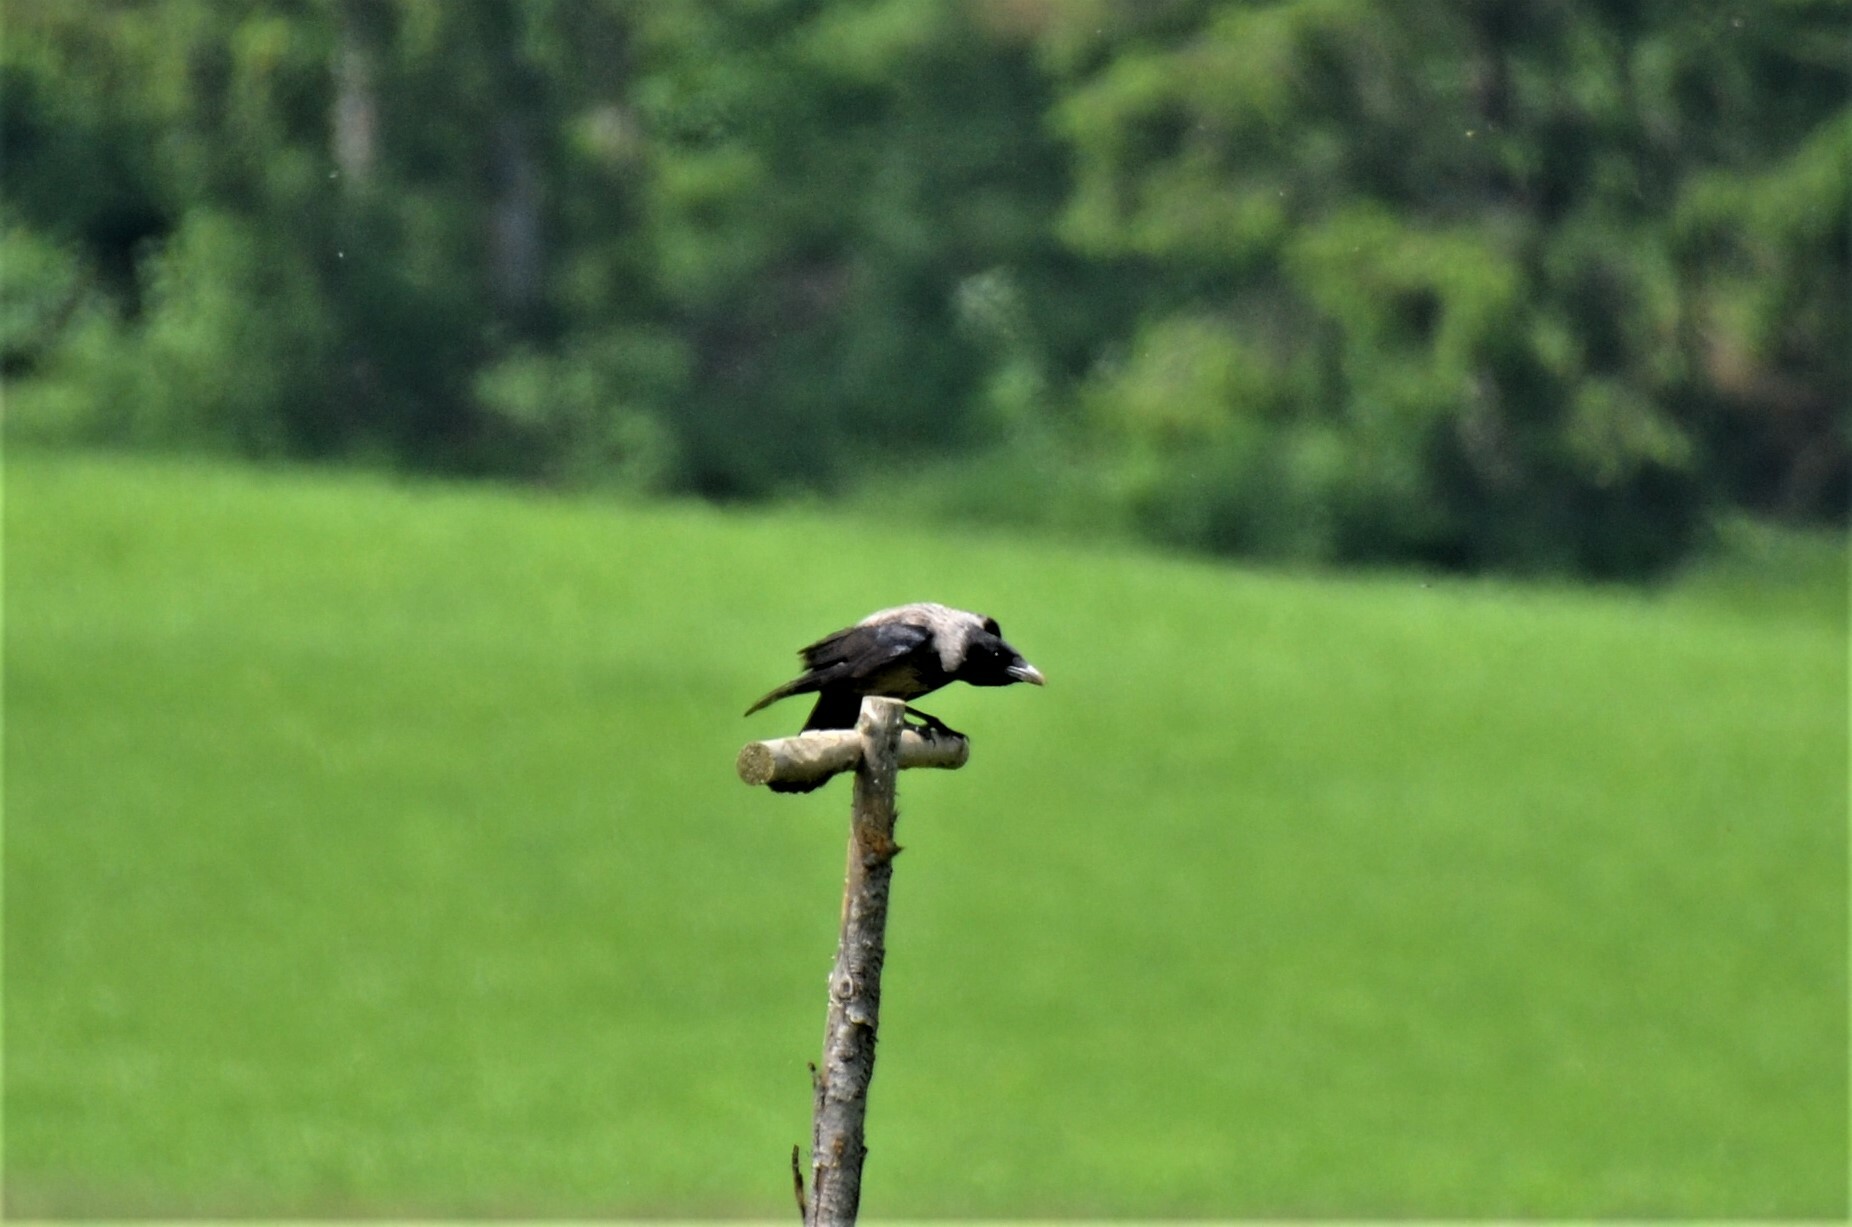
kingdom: Animalia
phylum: Chordata
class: Aves
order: Passeriformes
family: Corvidae
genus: Corvus
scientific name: Corvus cornix
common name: Hooded crow
